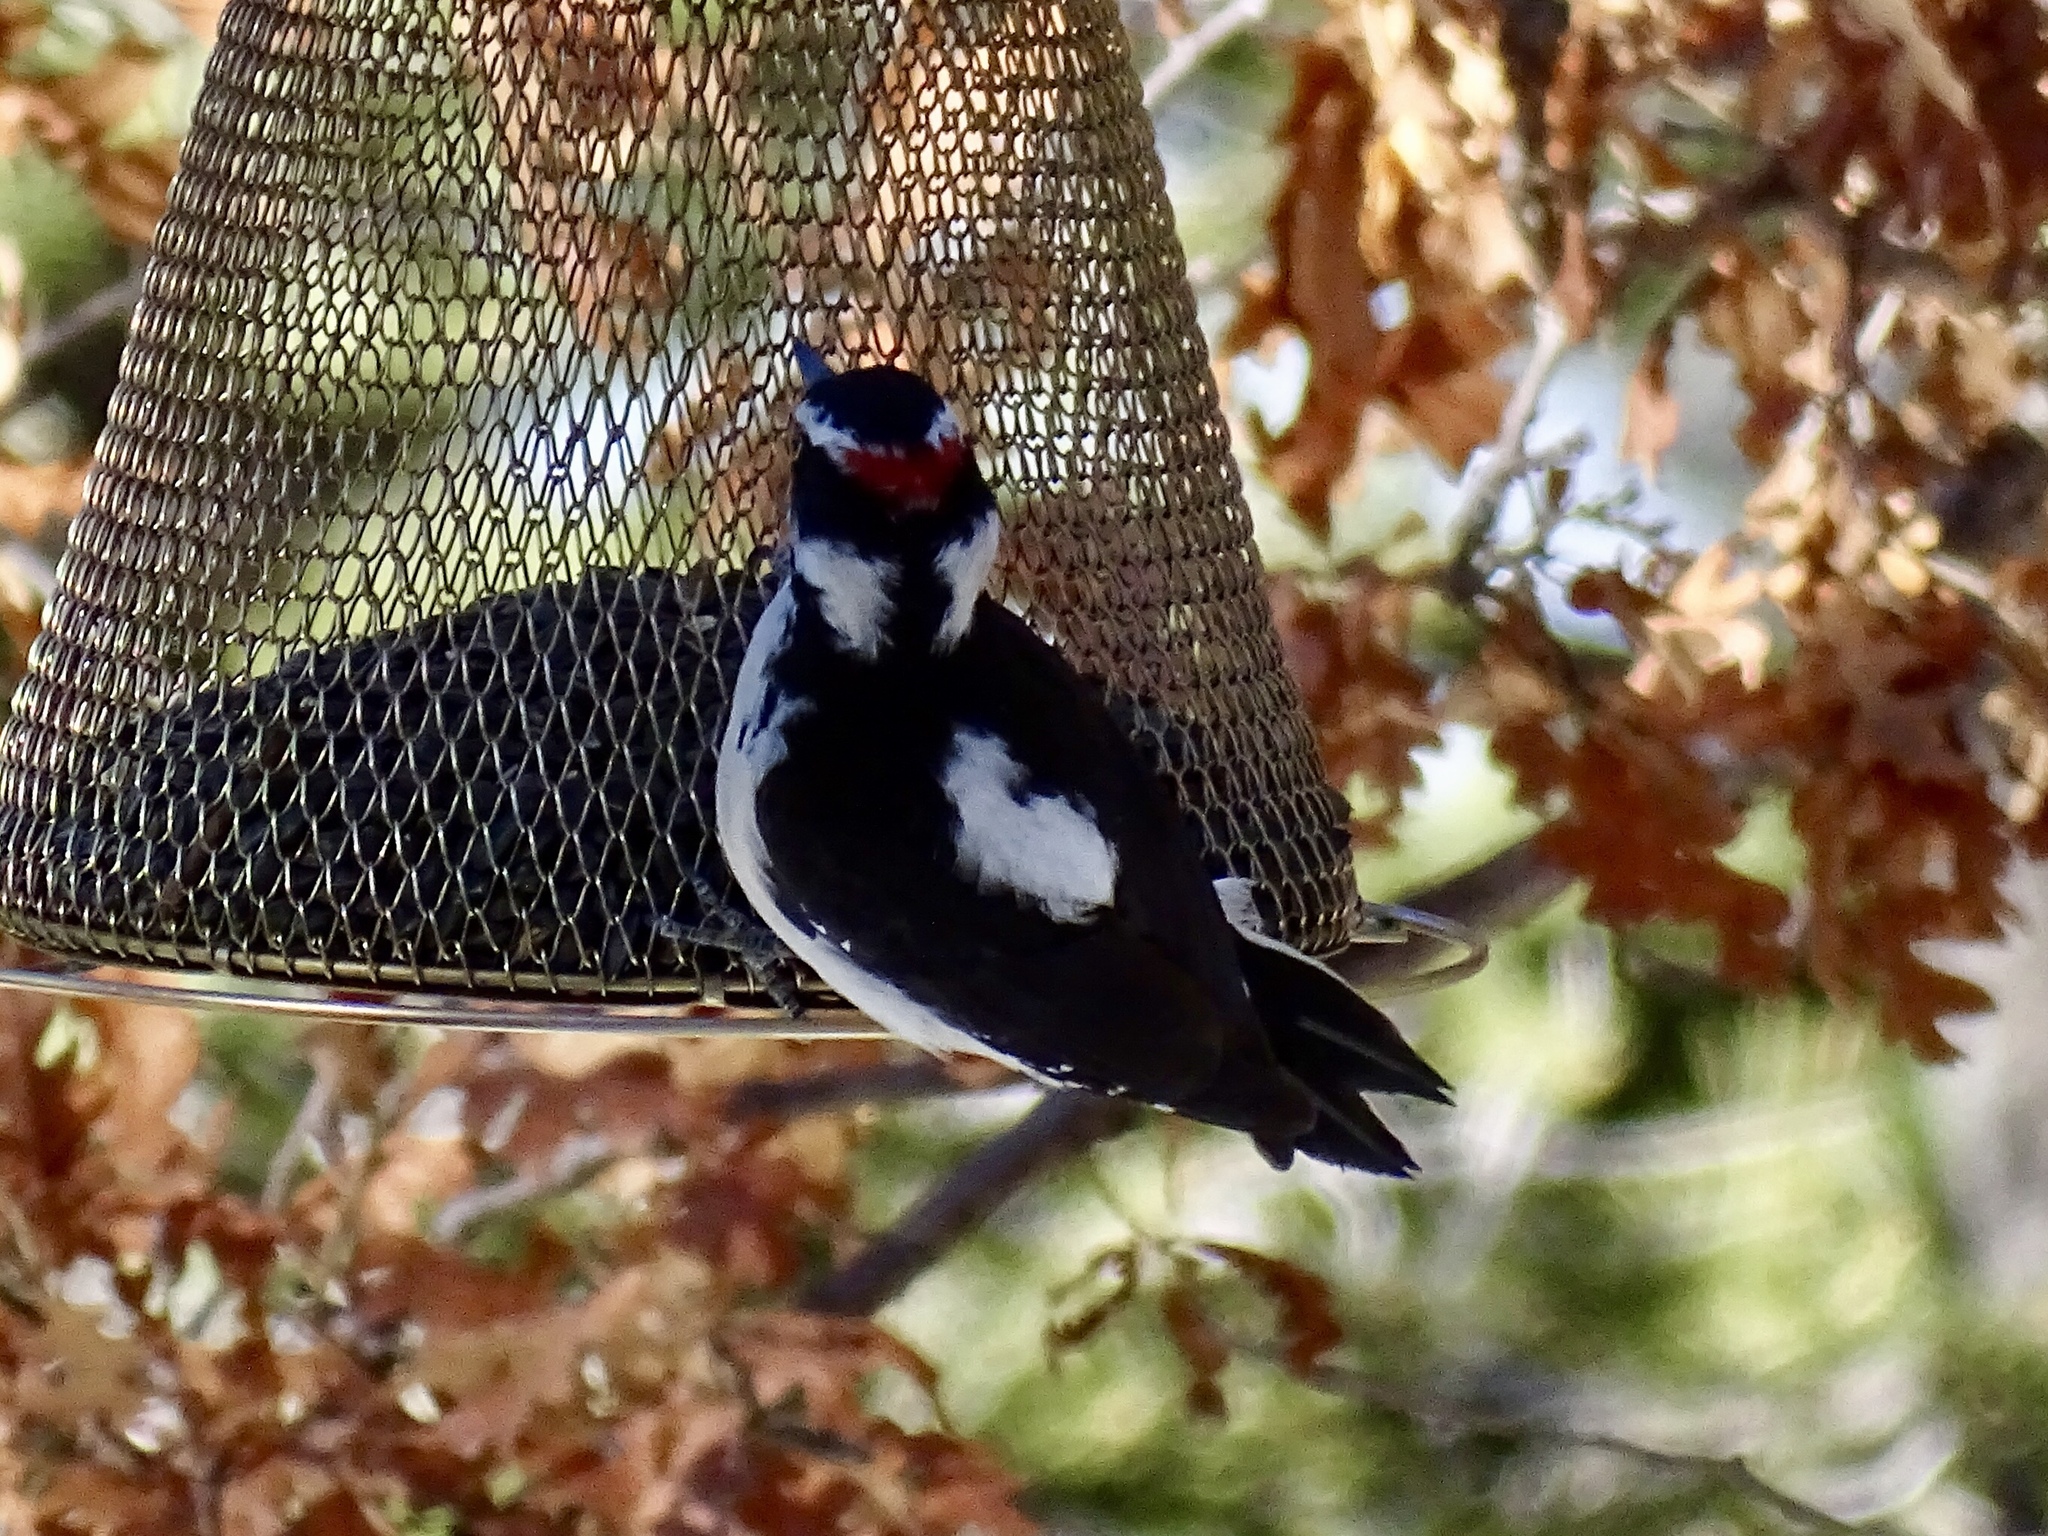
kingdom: Animalia
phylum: Chordata
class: Aves
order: Piciformes
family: Picidae
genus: Leuconotopicus
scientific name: Leuconotopicus villosus
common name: Hairy woodpecker
